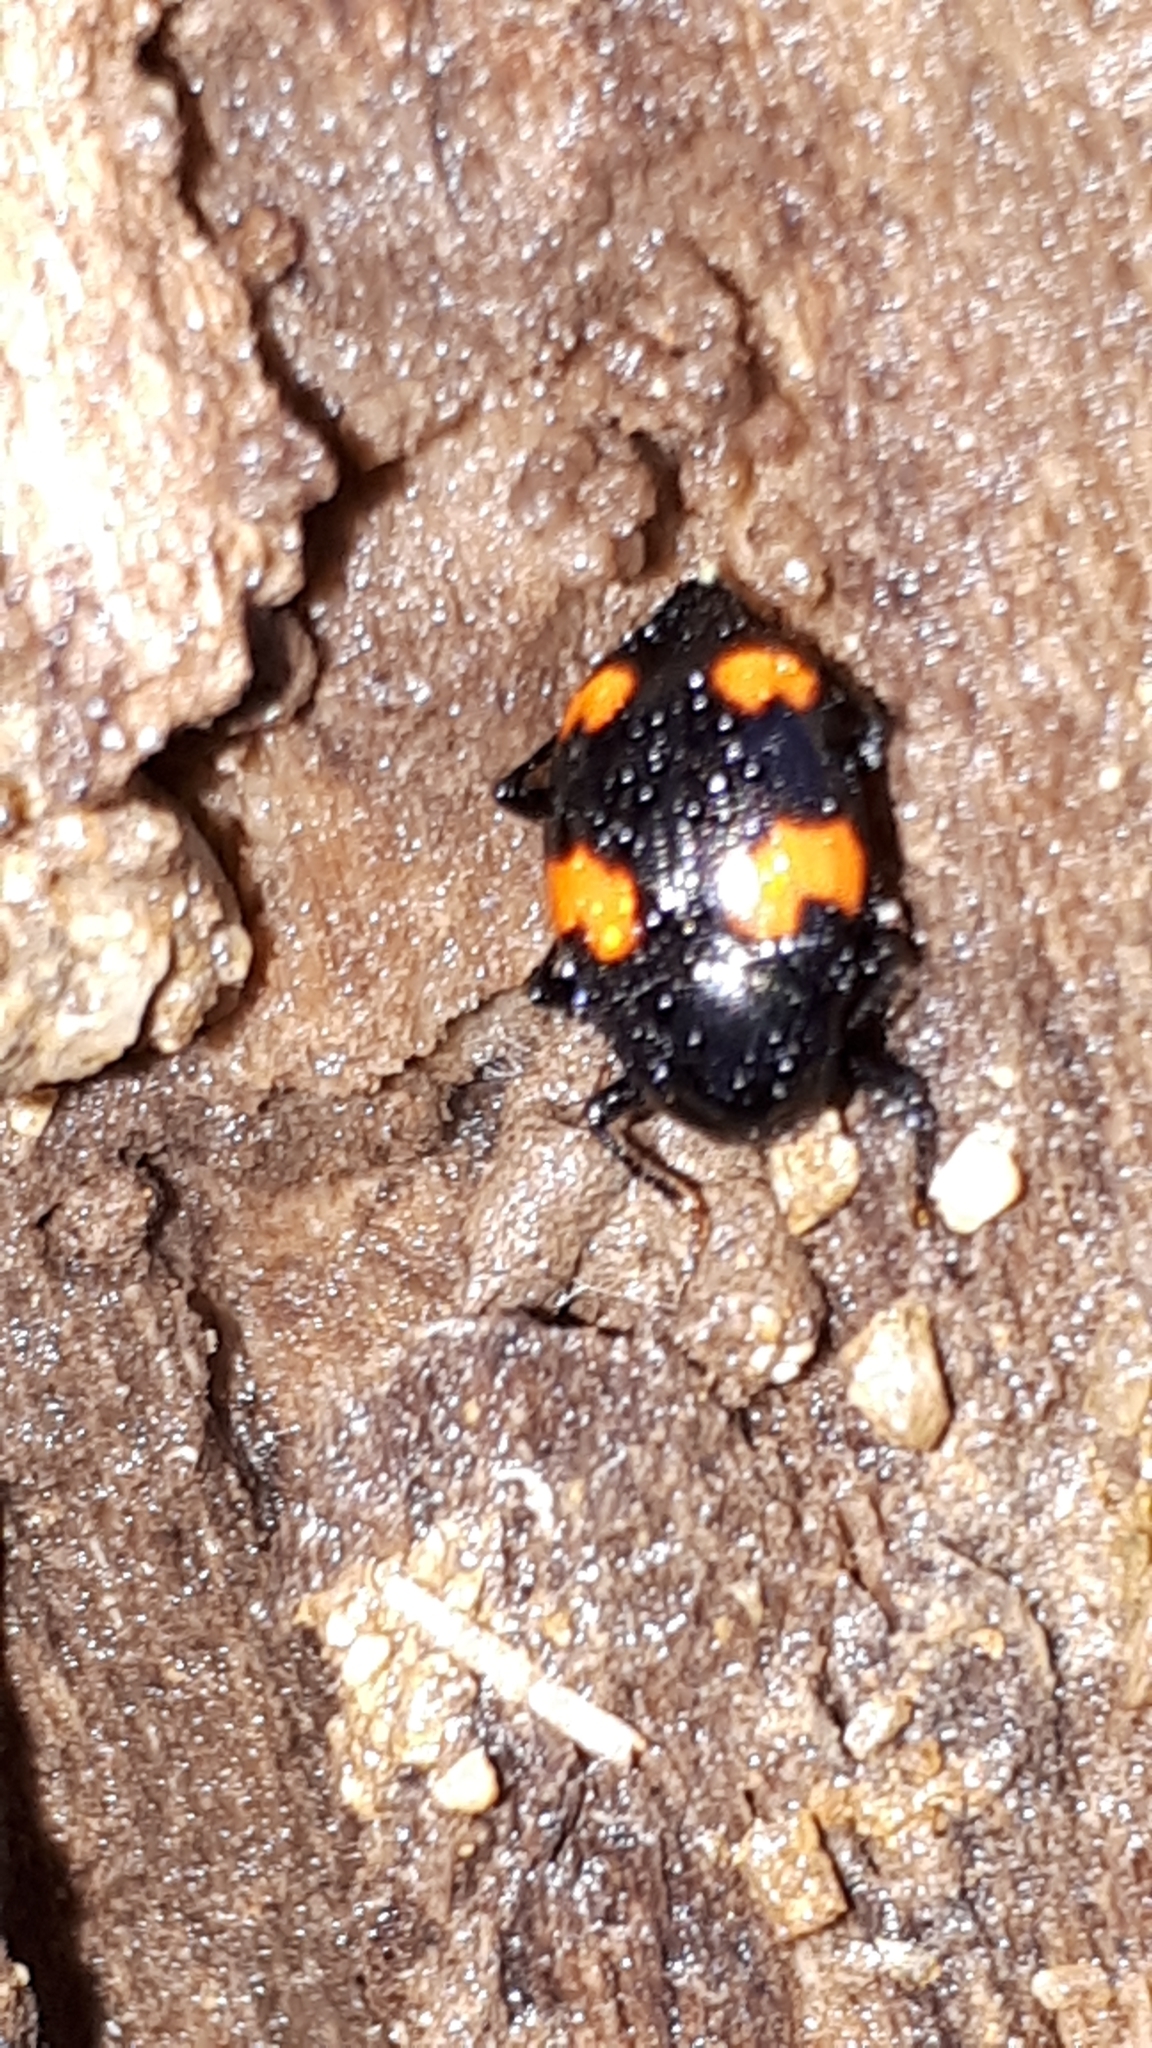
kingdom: Animalia
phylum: Arthropoda
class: Insecta
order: Coleoptera
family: Staphylinidae
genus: Scaphidium
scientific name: Scaphidium quadrimaculatum
